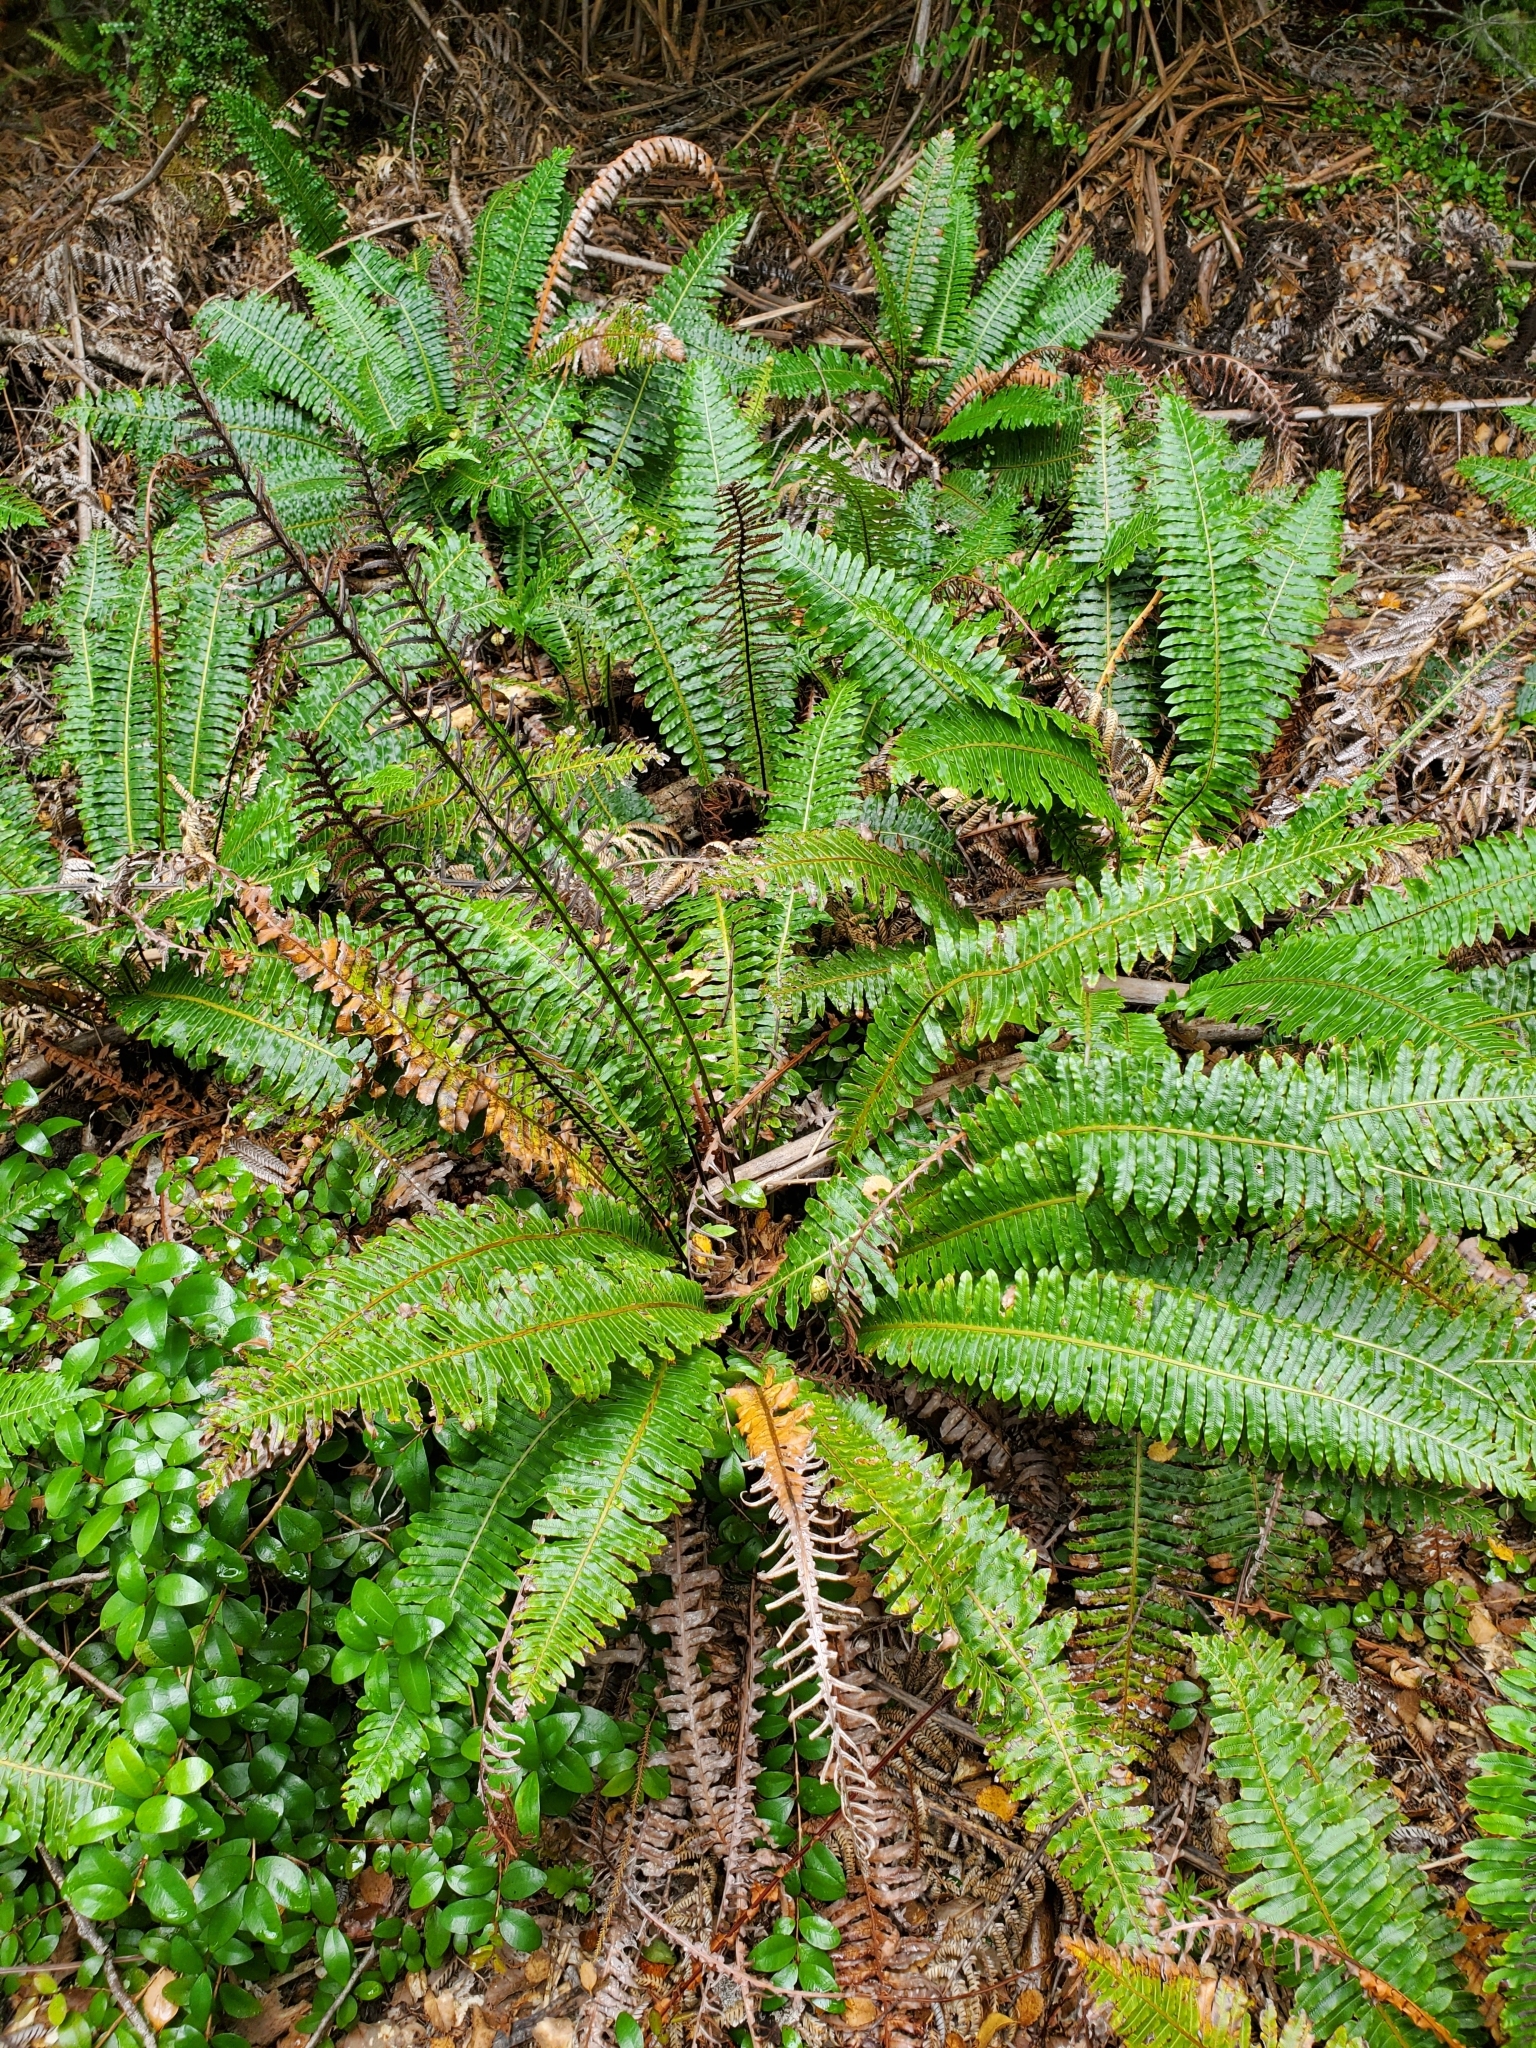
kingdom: Plantae
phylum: Tracheophyta
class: Polypodiopsida
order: Polypodiales
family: Blechnaceae
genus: Lomaria
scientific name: Lomaria discolor
